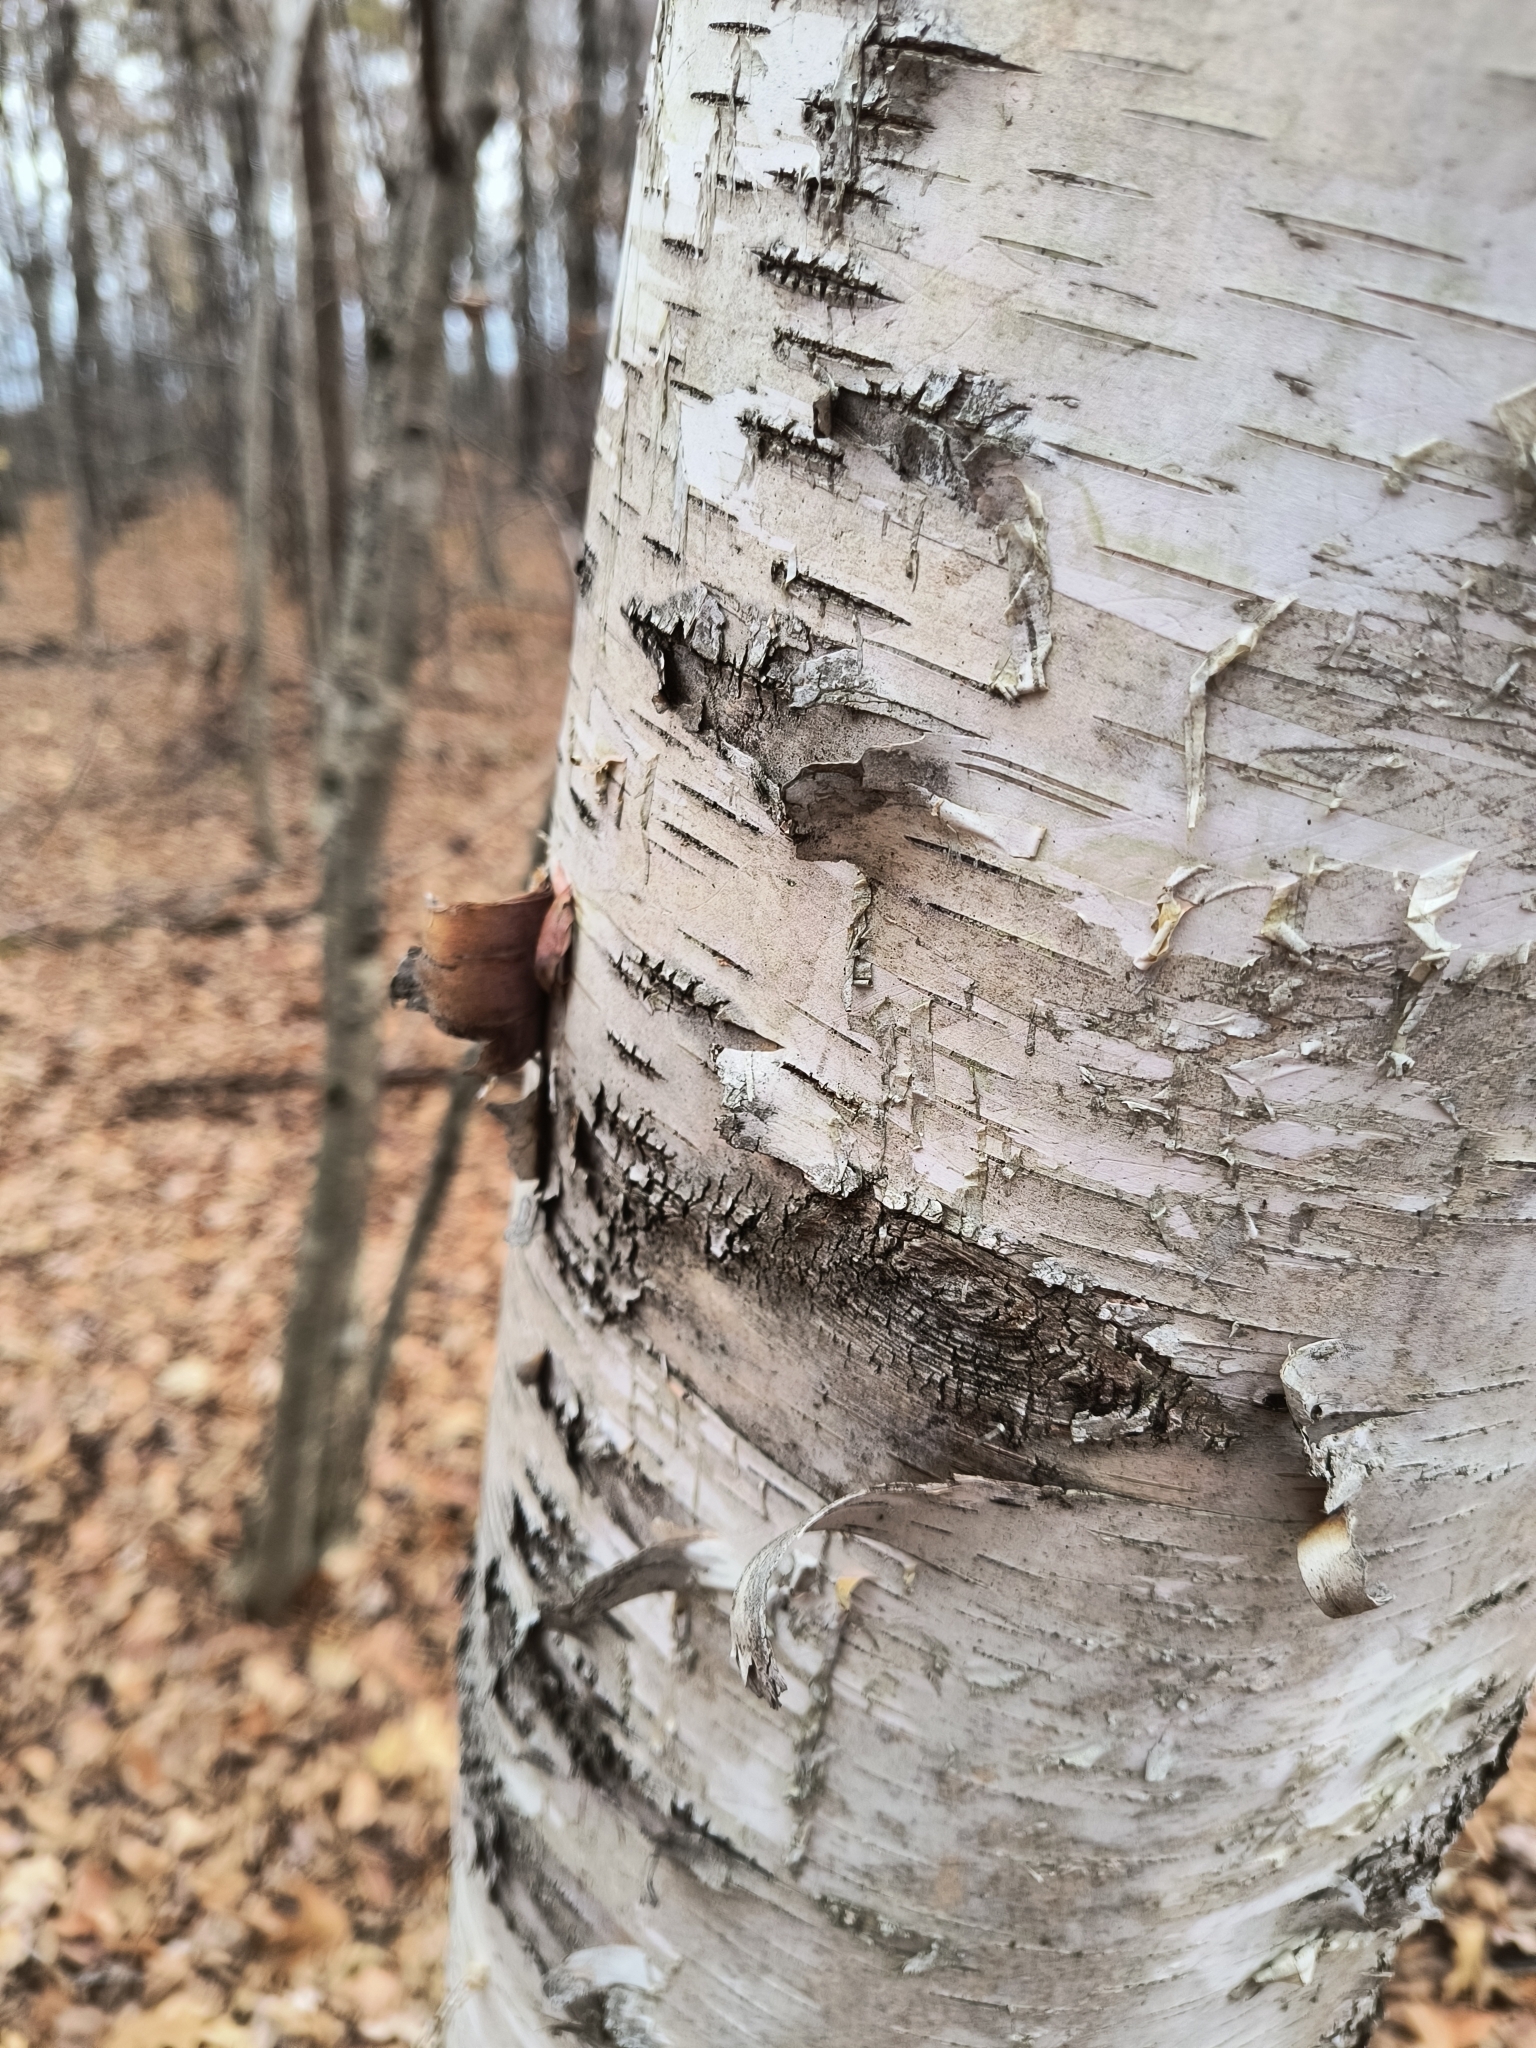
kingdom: Plantae
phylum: Tracheophyta
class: Magnoliopsida
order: Fagales
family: Betulaceae
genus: Betula
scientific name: Betula papyrifera
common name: Paper birch
